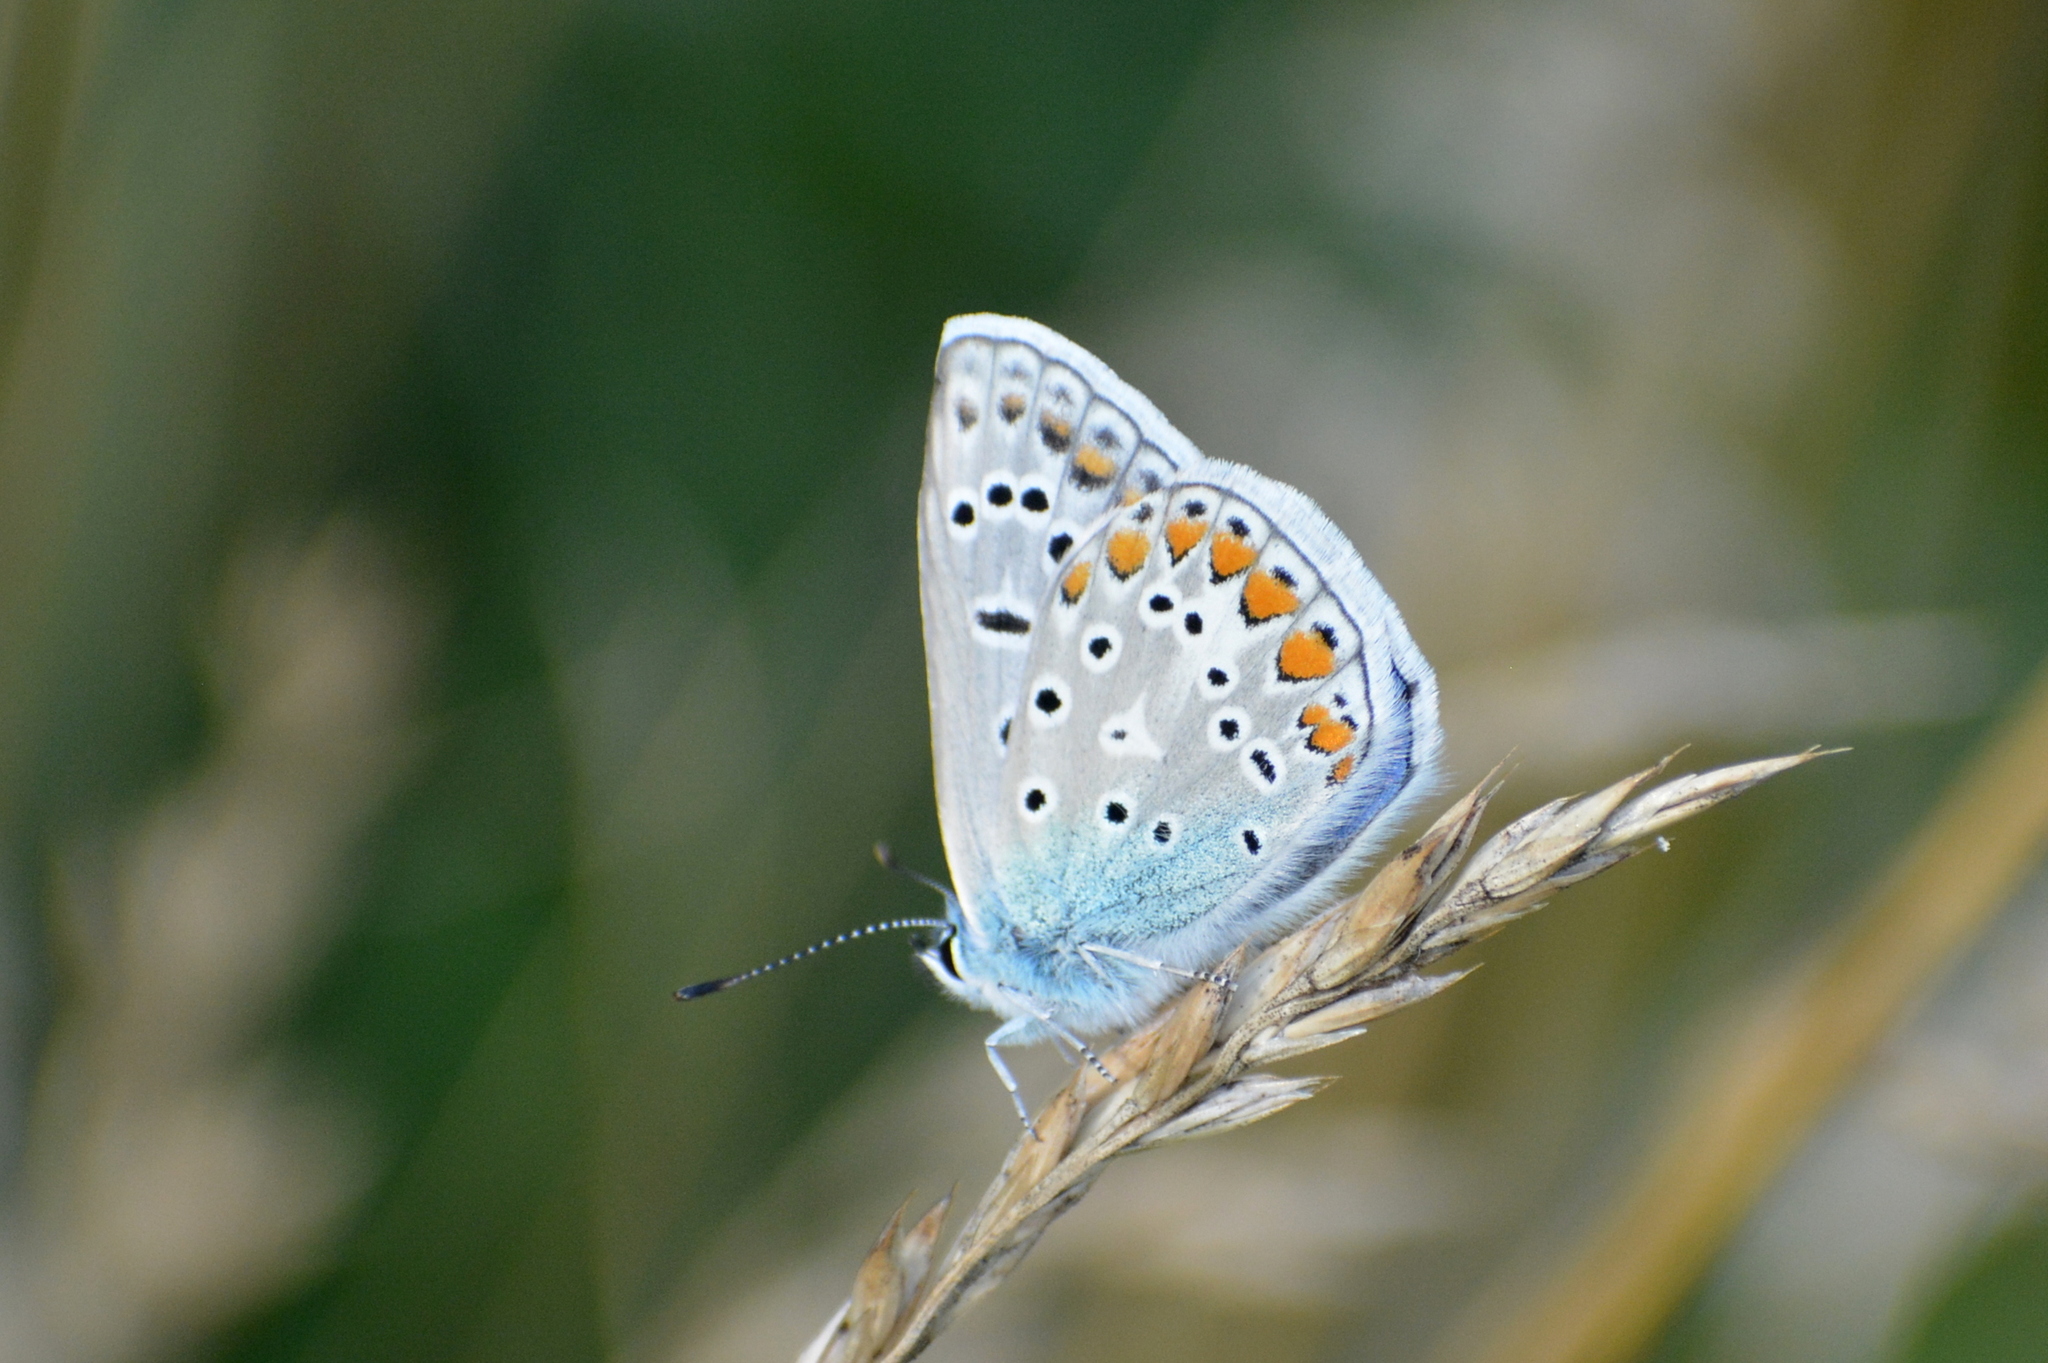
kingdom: Animalia
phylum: Arthropoda
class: Insecta
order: Lepidoptera
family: Lycaenidae
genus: Polyommatus
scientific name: Polyommatus icarus
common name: Common blue
